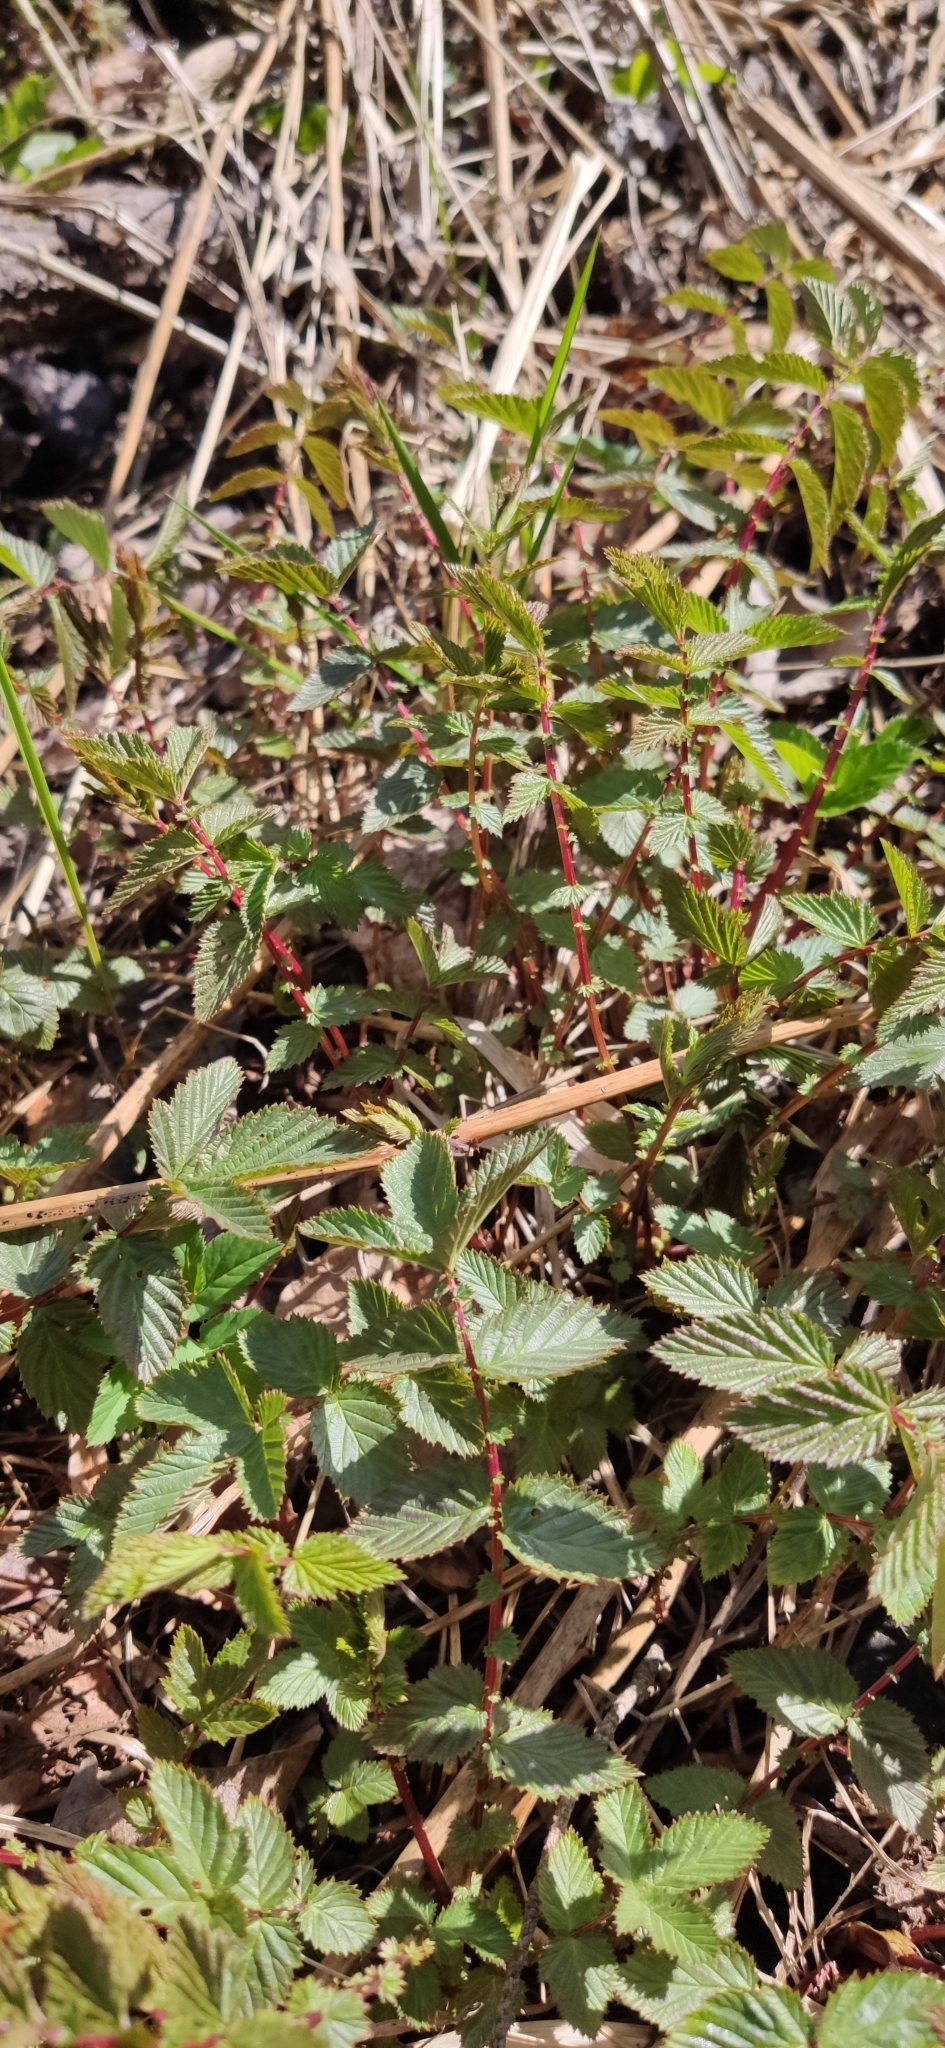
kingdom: Plantae
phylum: Tracheophyta
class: Magnoliopsida
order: Rosales
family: Rosaceae
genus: Filipendula
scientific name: Filipendula ulmaria
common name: Meadowsweet
